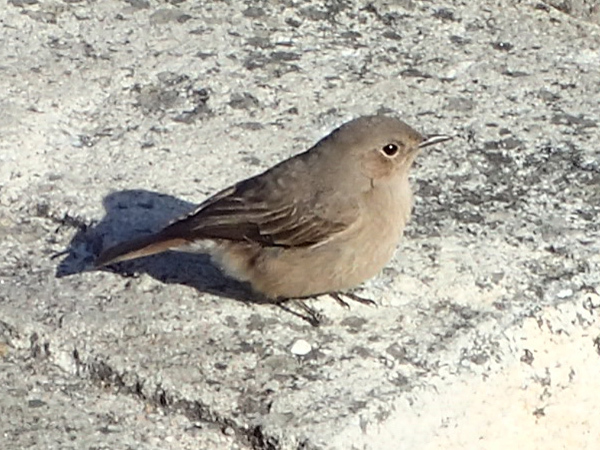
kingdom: Animalia
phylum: Chordata
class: Aves
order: Passeriformes
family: Muscicapidae
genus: Oenanthe
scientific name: Oenanthe familiaris
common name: Familiar chat
